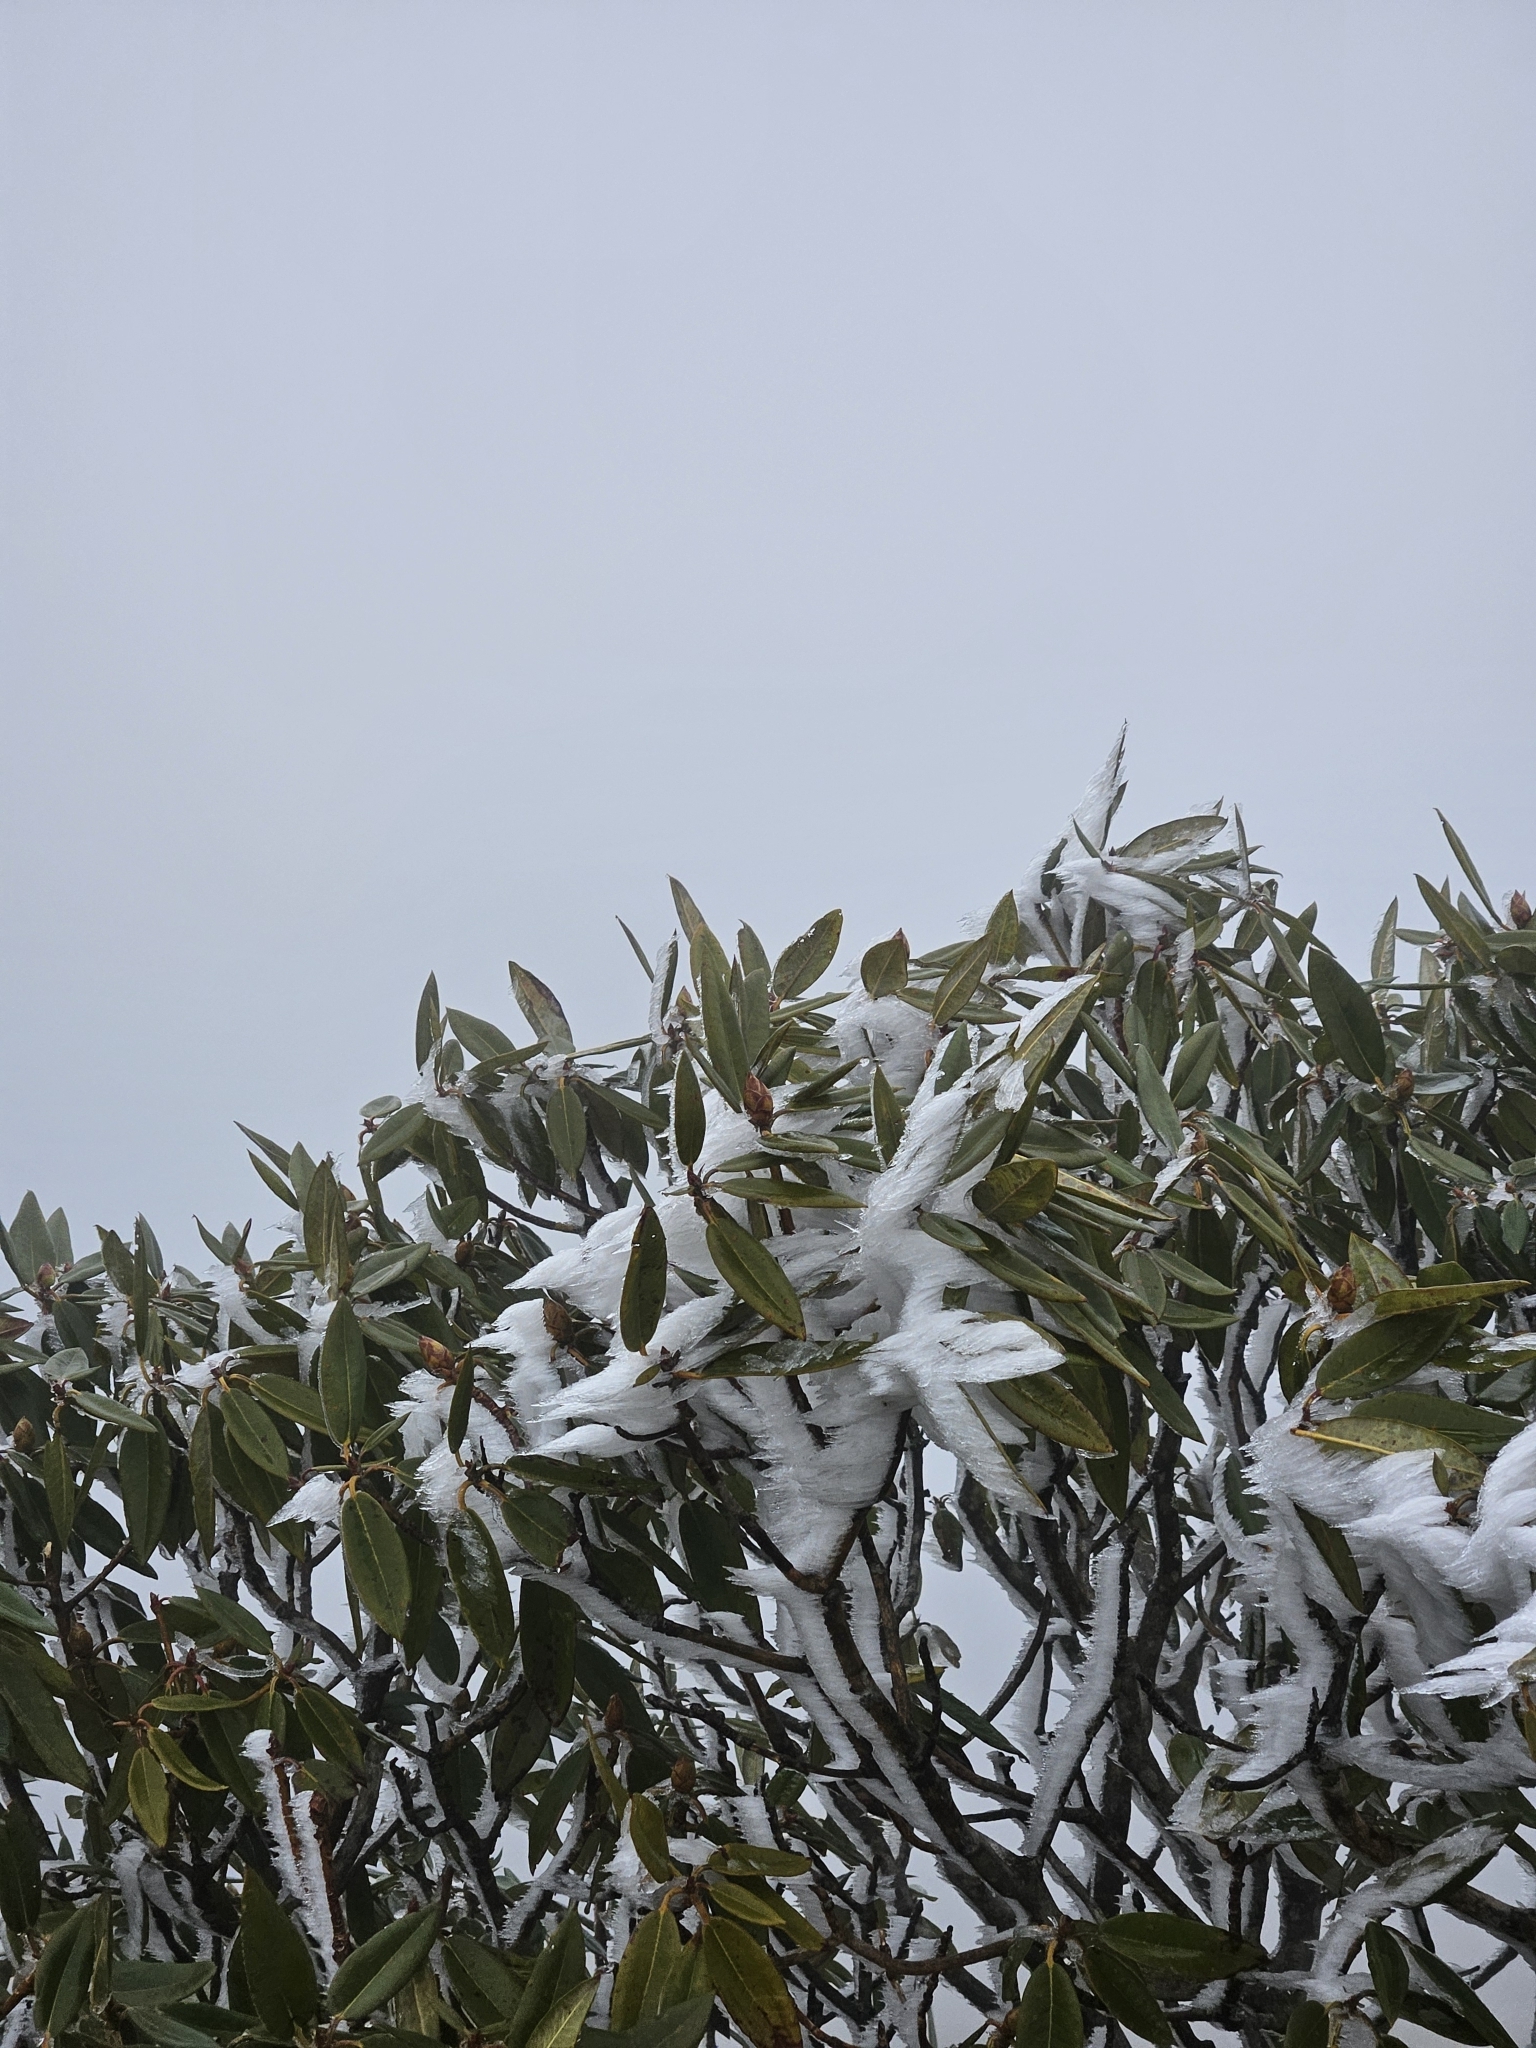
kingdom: Plantae
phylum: Tracheophyta
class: Magnoliopsida
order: Ericales
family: Ericaceae
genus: Rhododendron
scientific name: Rhododendron pseudochrysanthum
